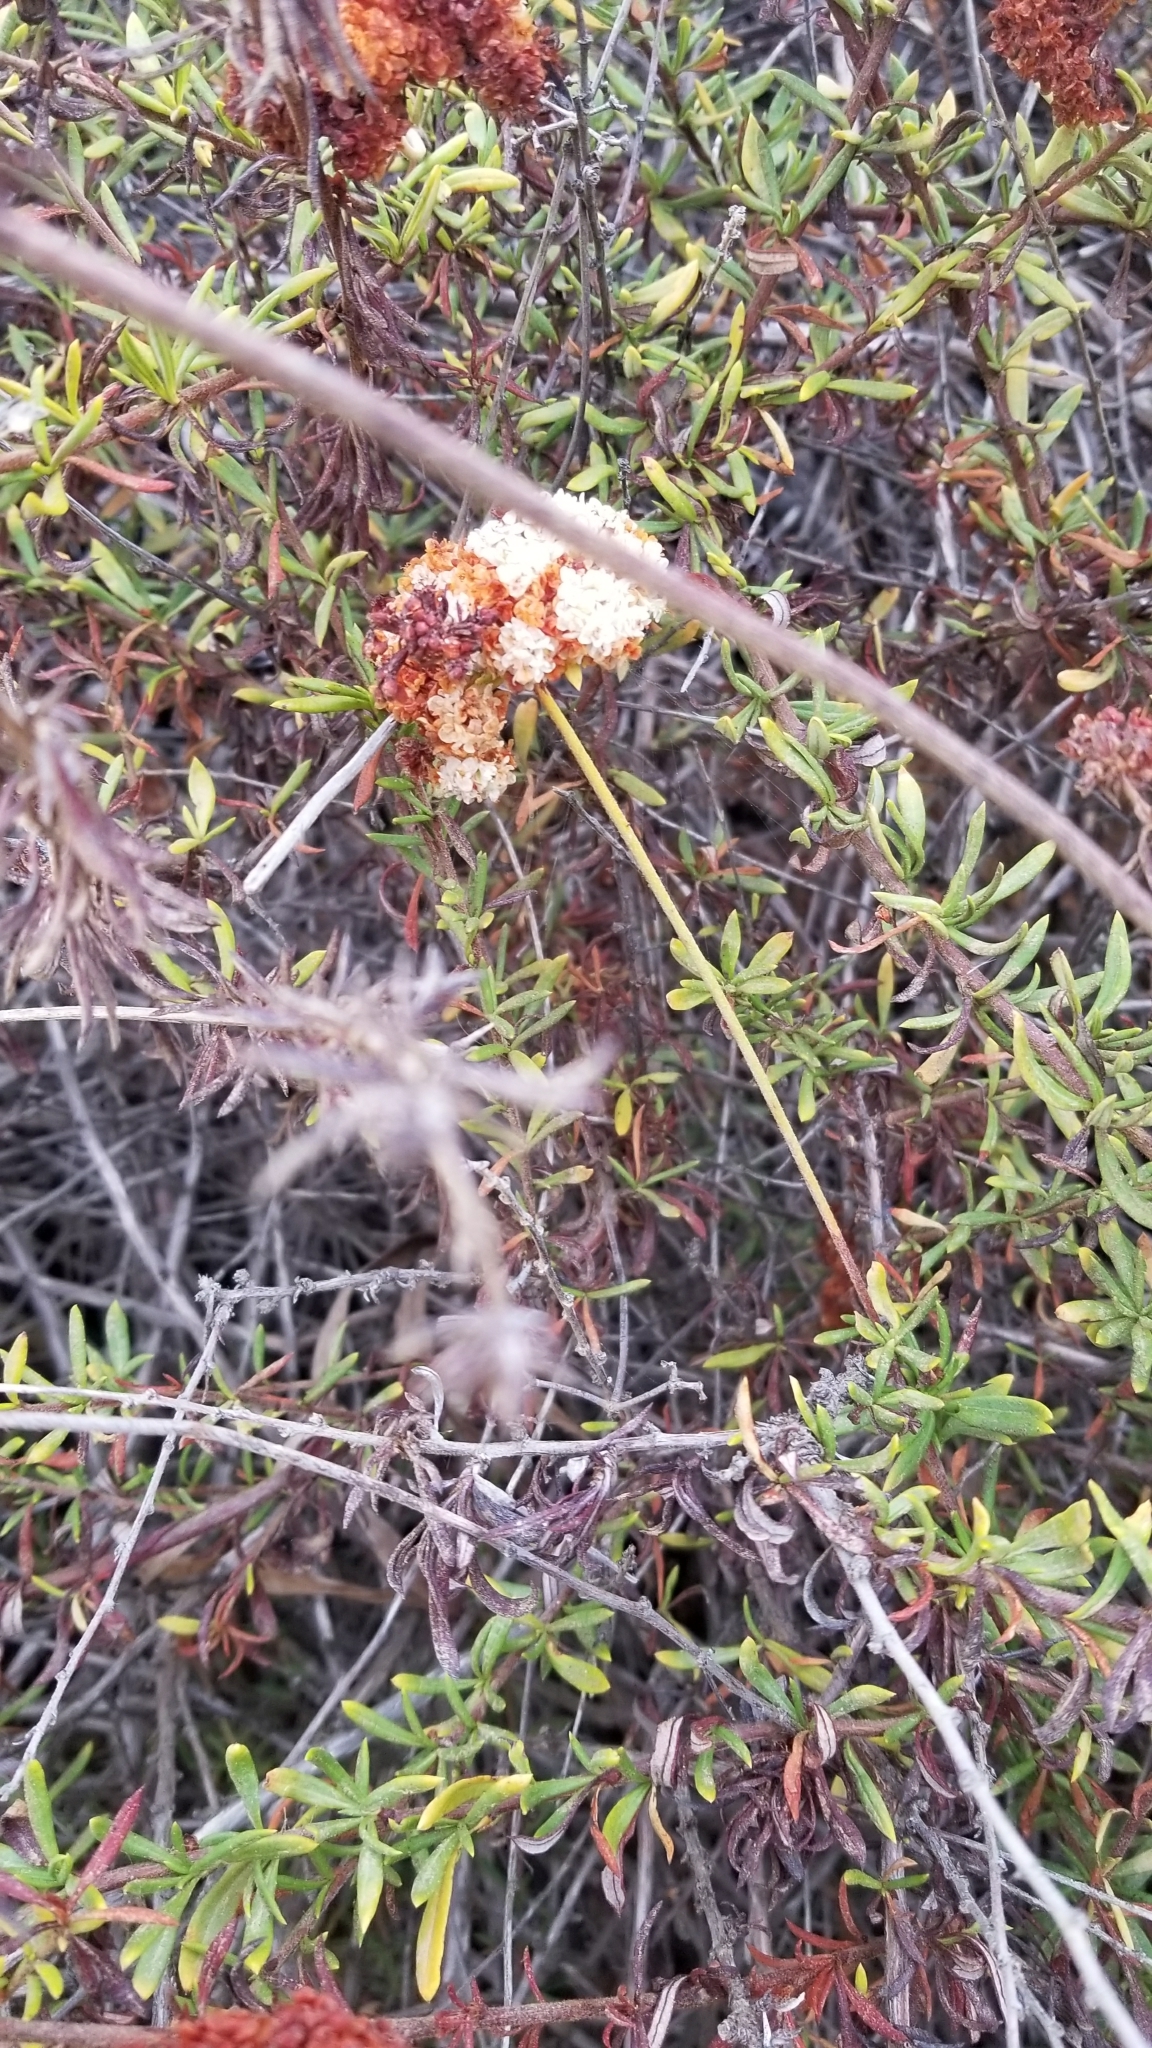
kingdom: Plantae
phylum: Tracheophyta
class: Magnoliopsida
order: Caryophyllales
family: Polygonaceae
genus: Eriogonum
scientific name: Eriogonum fasciculatum
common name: California wild buckwheat
